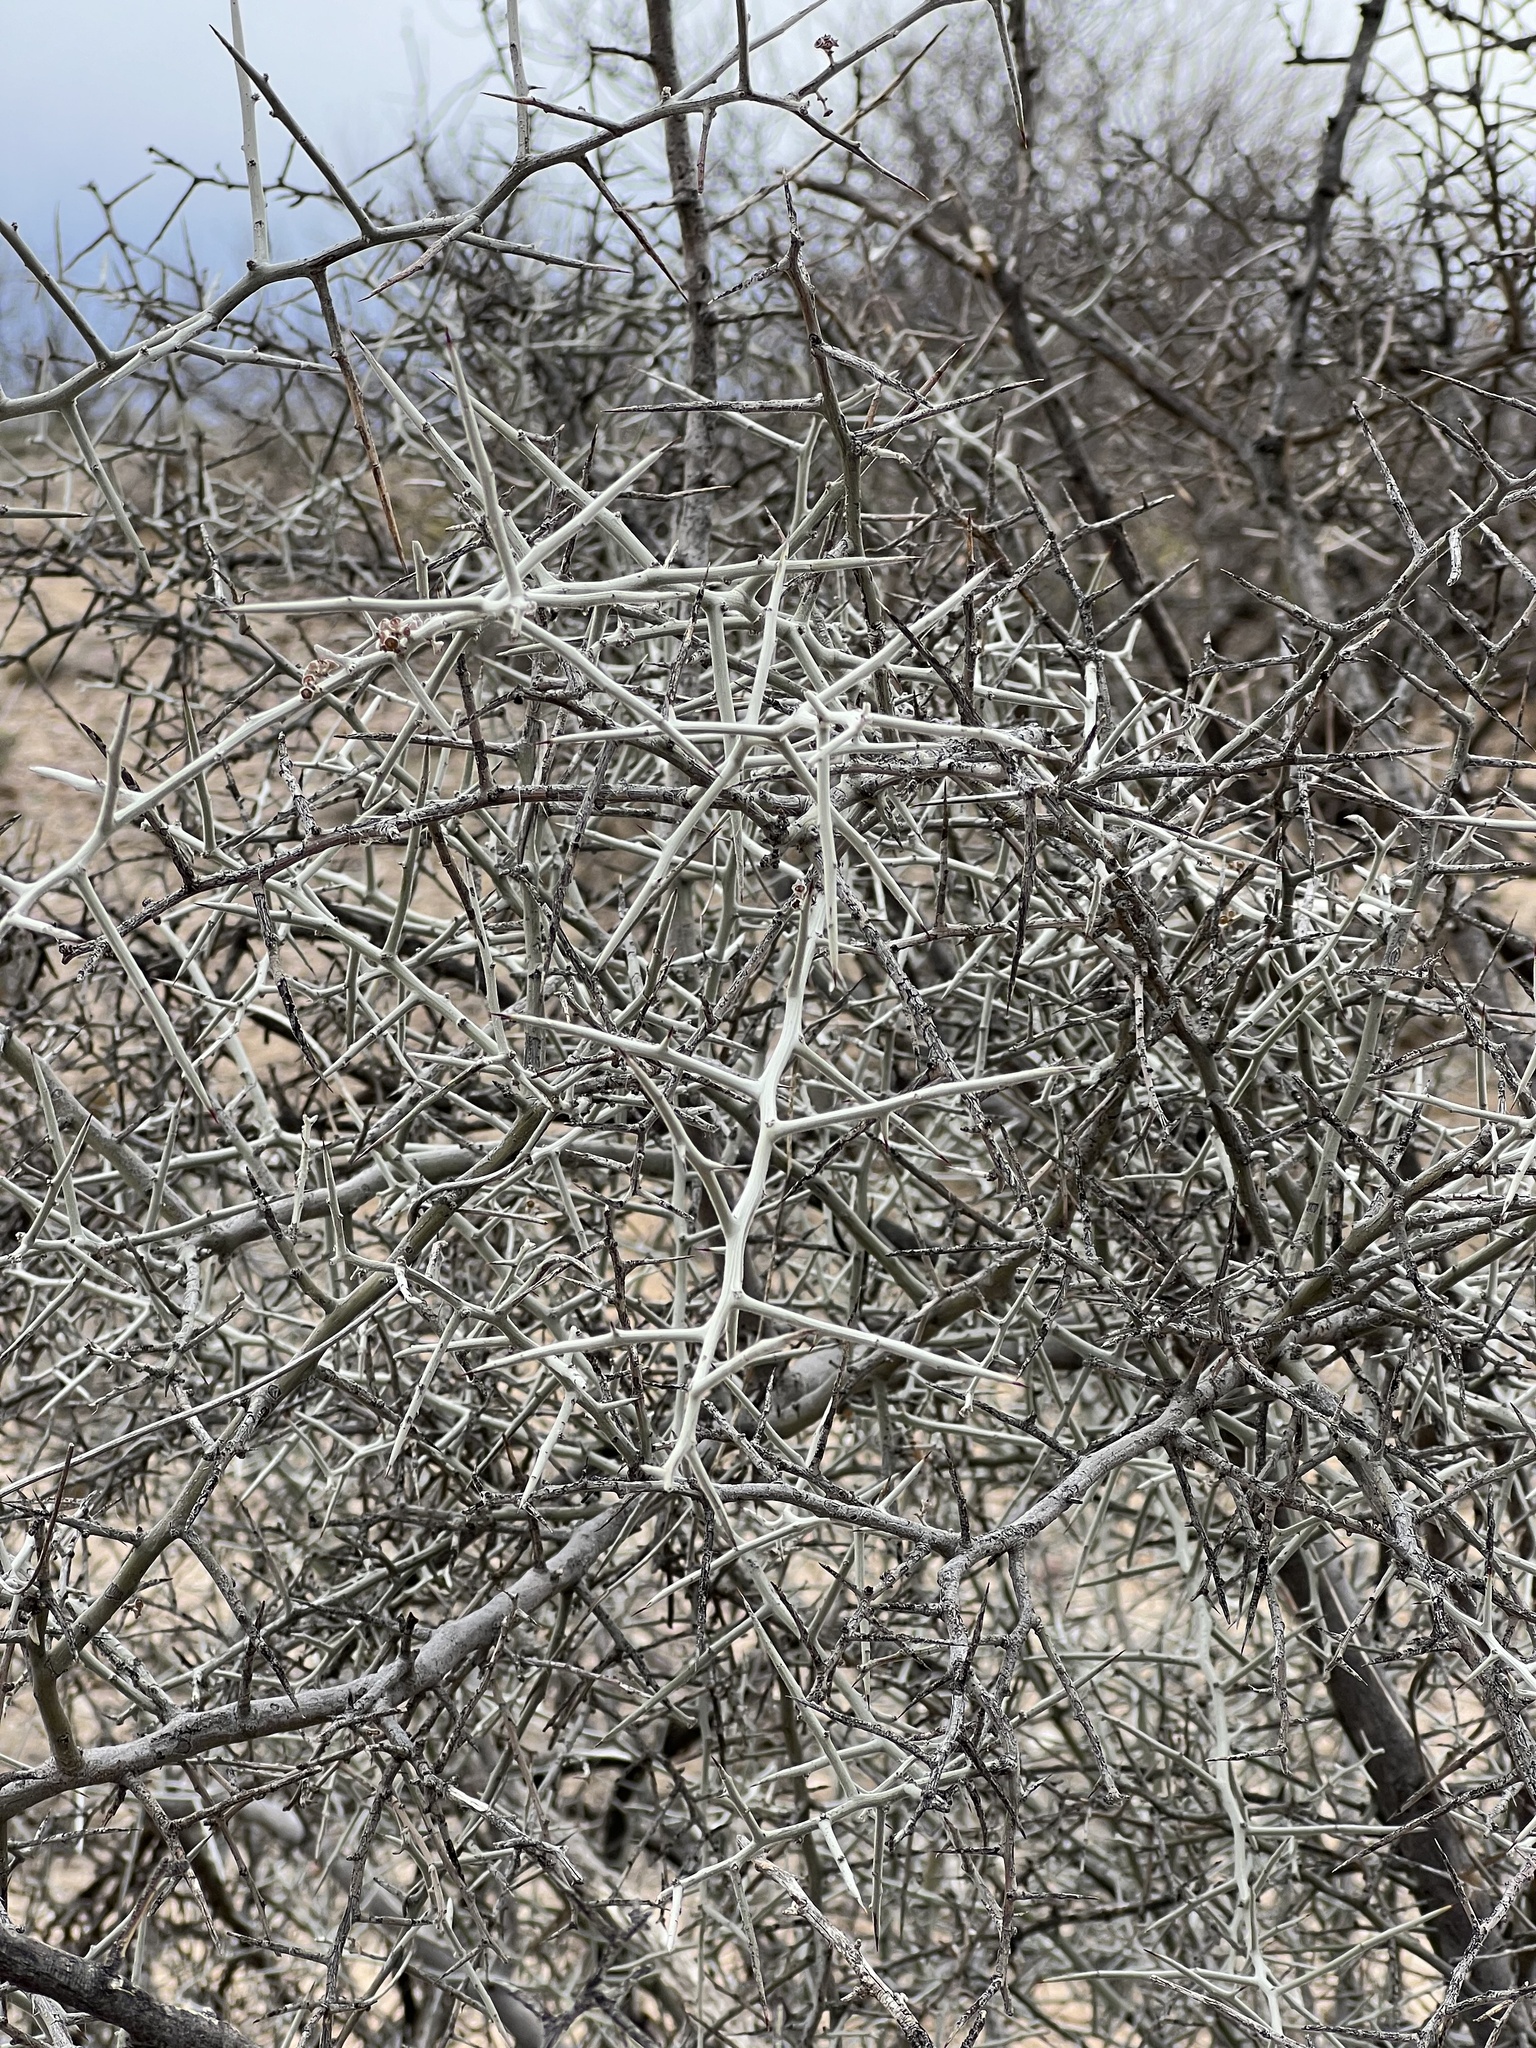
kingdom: Plantae
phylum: Tracheophyta
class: Magnoliopsida
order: Rosales
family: Rhamnaceae
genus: Sarcomphalus
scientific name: Sarcomphalus obtusifolius
